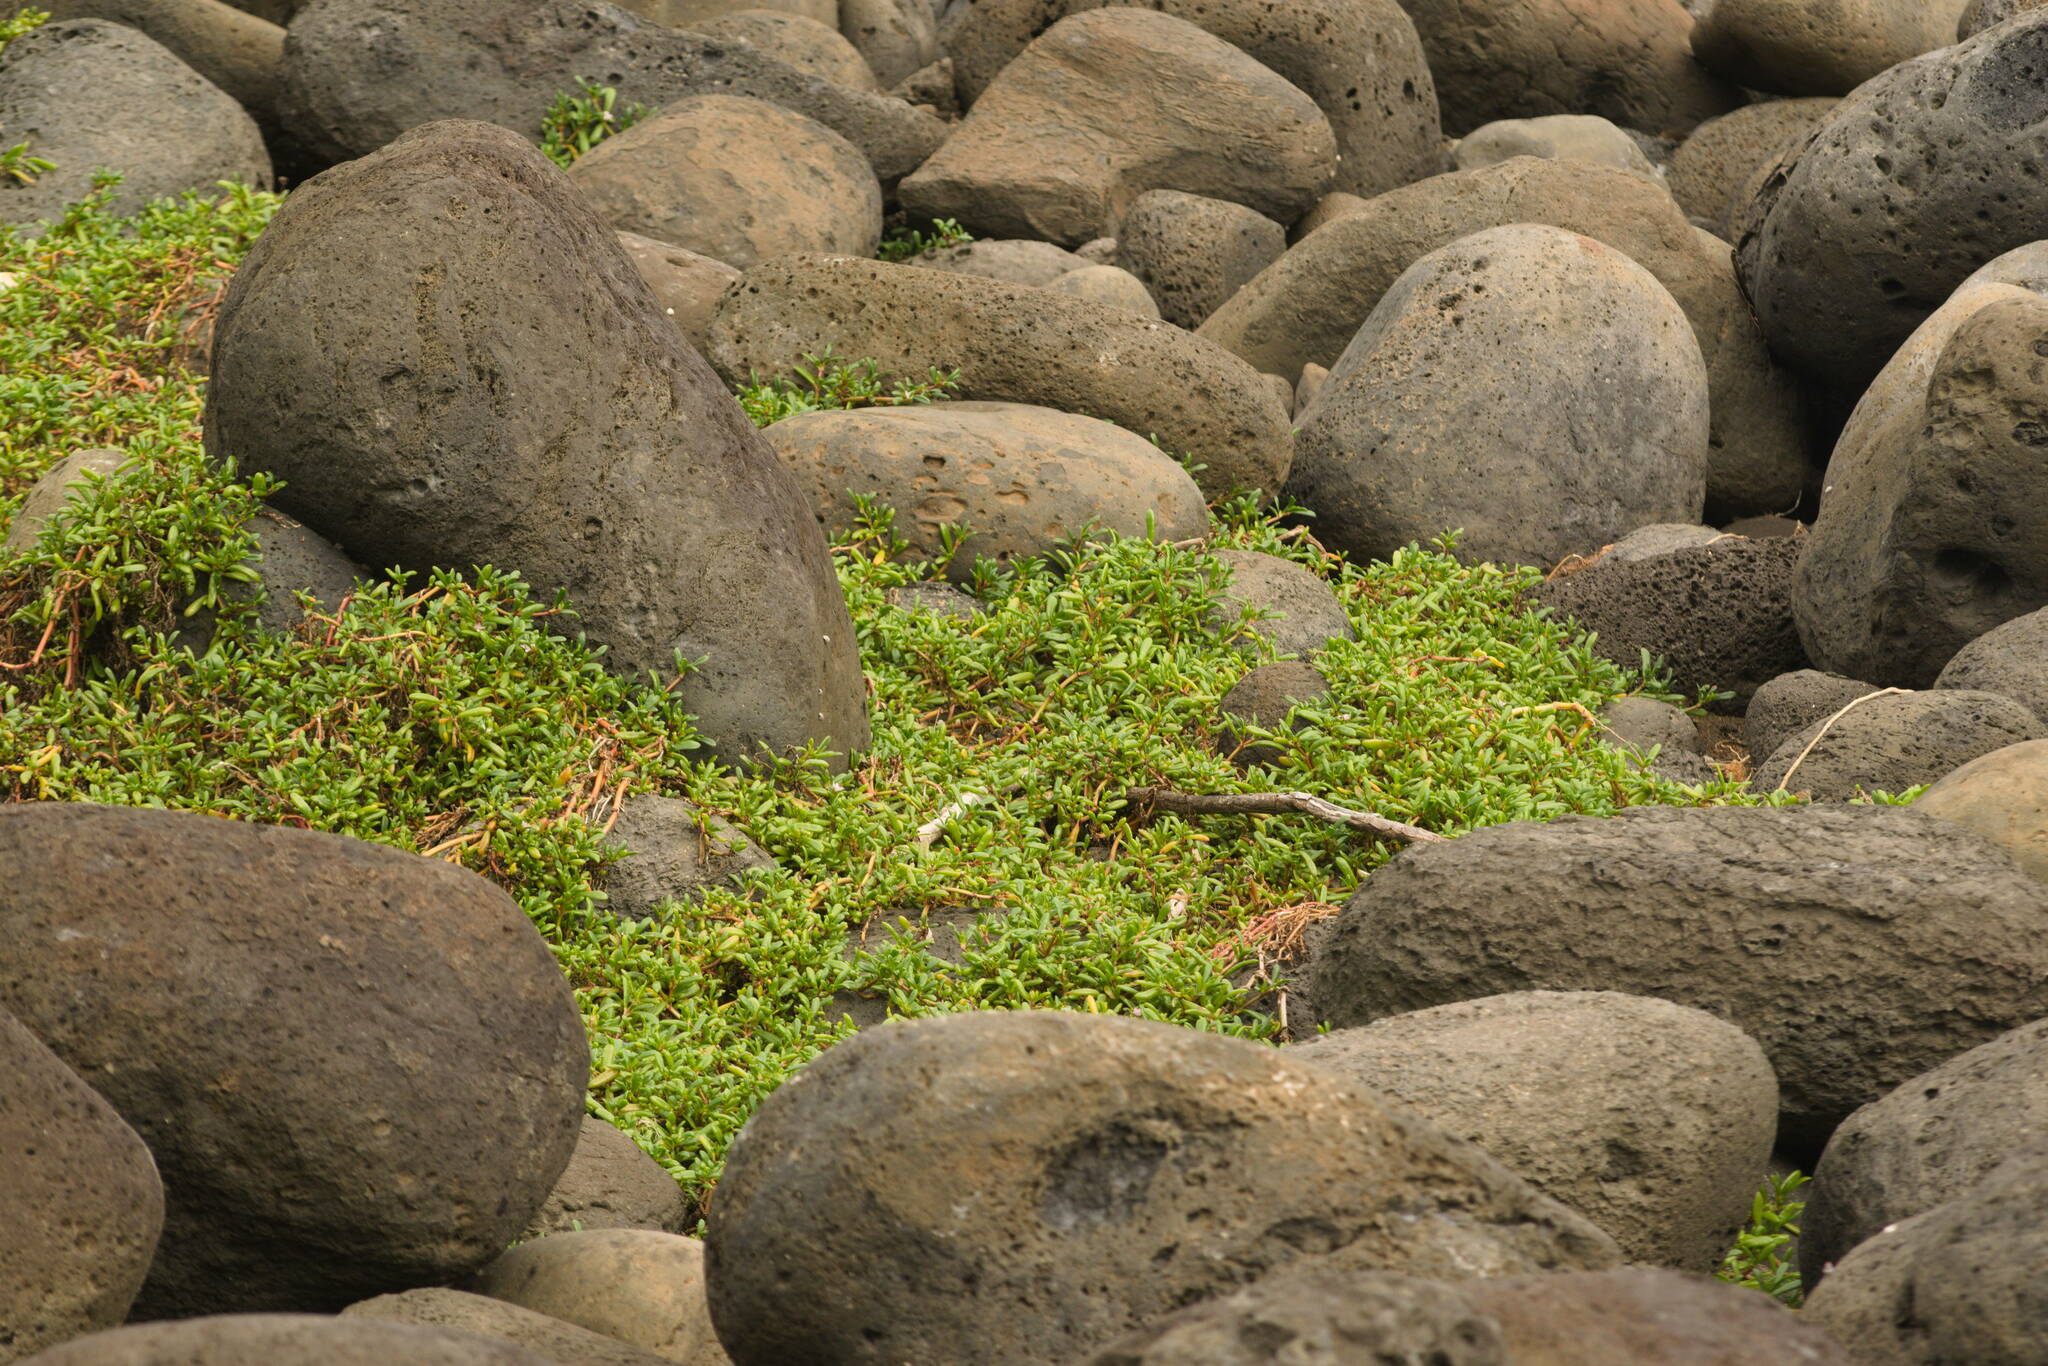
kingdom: Plantae
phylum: Tracheophyta
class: Magnoliopsida
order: Caryophyllales
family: Aizoaceae
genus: Sesuvium
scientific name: Sesuvium portulacastrum
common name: Sea-purslane
